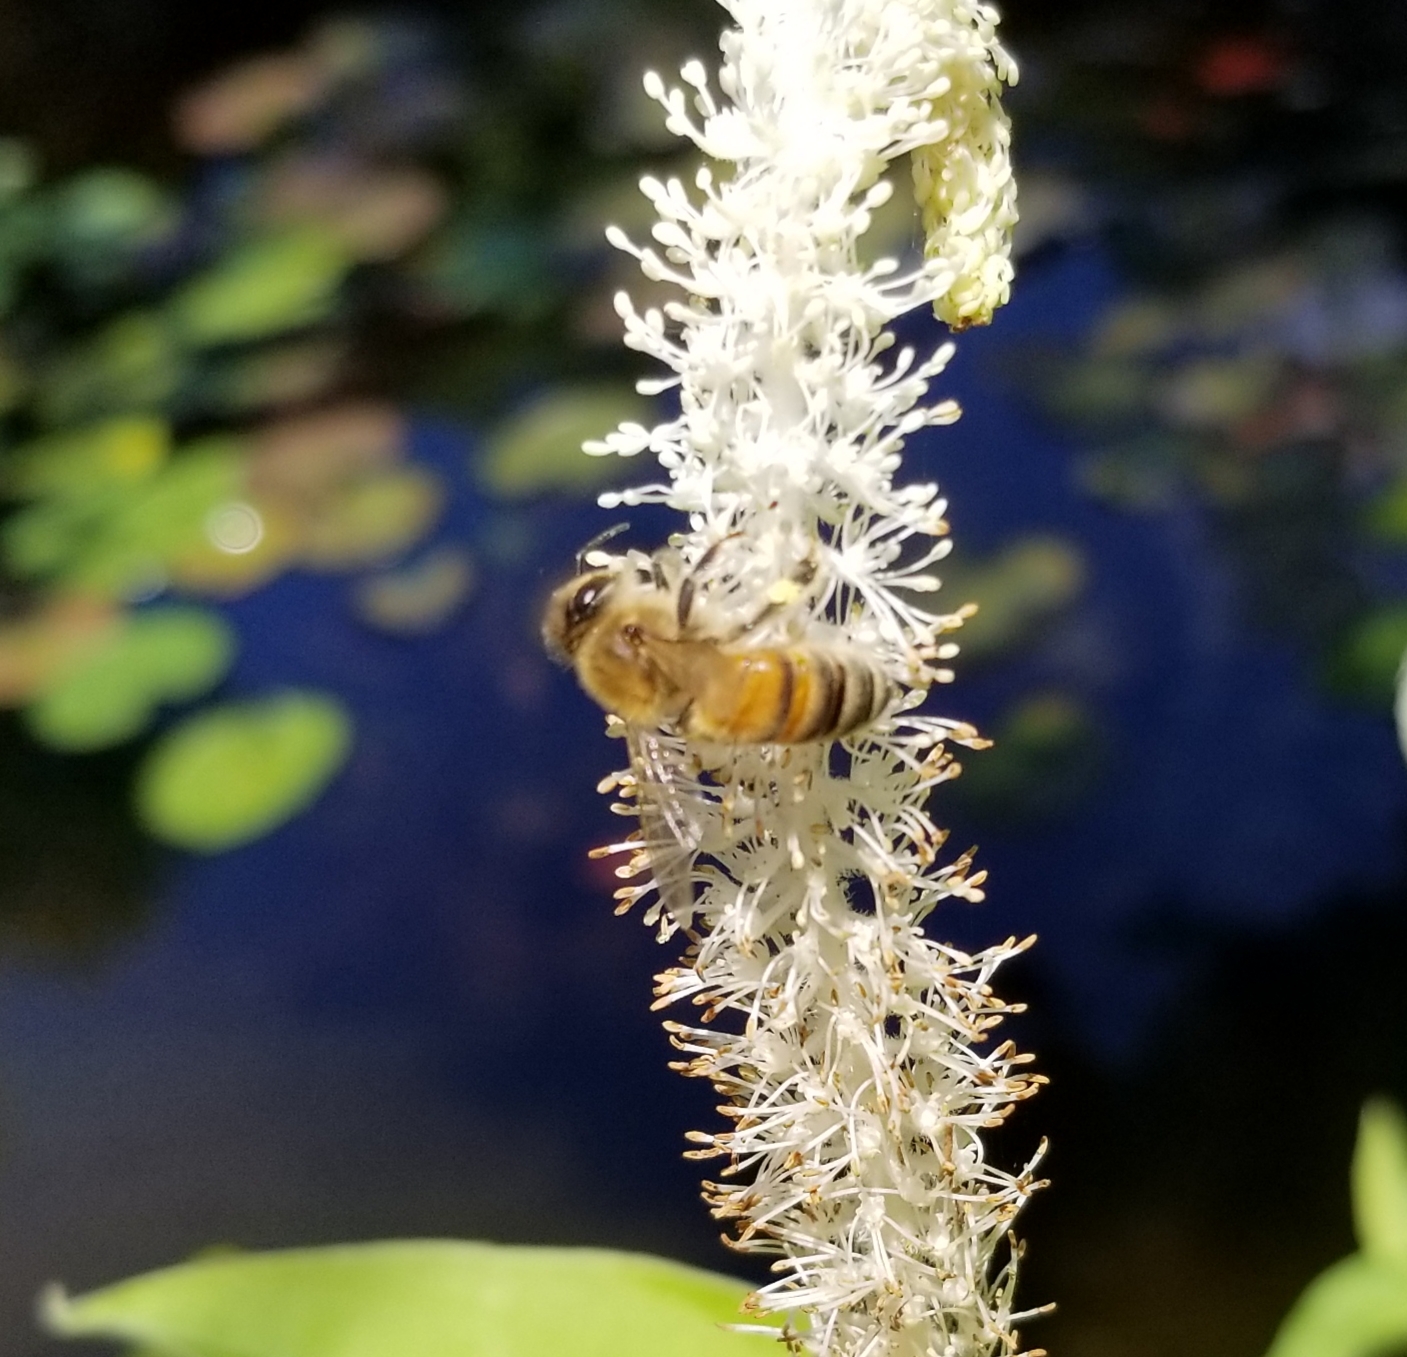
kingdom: Animalia
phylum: Arthropoda
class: Insecta
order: Hymenoptera
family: Apidae
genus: Apis
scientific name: Apis mellifera
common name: Honey bee
